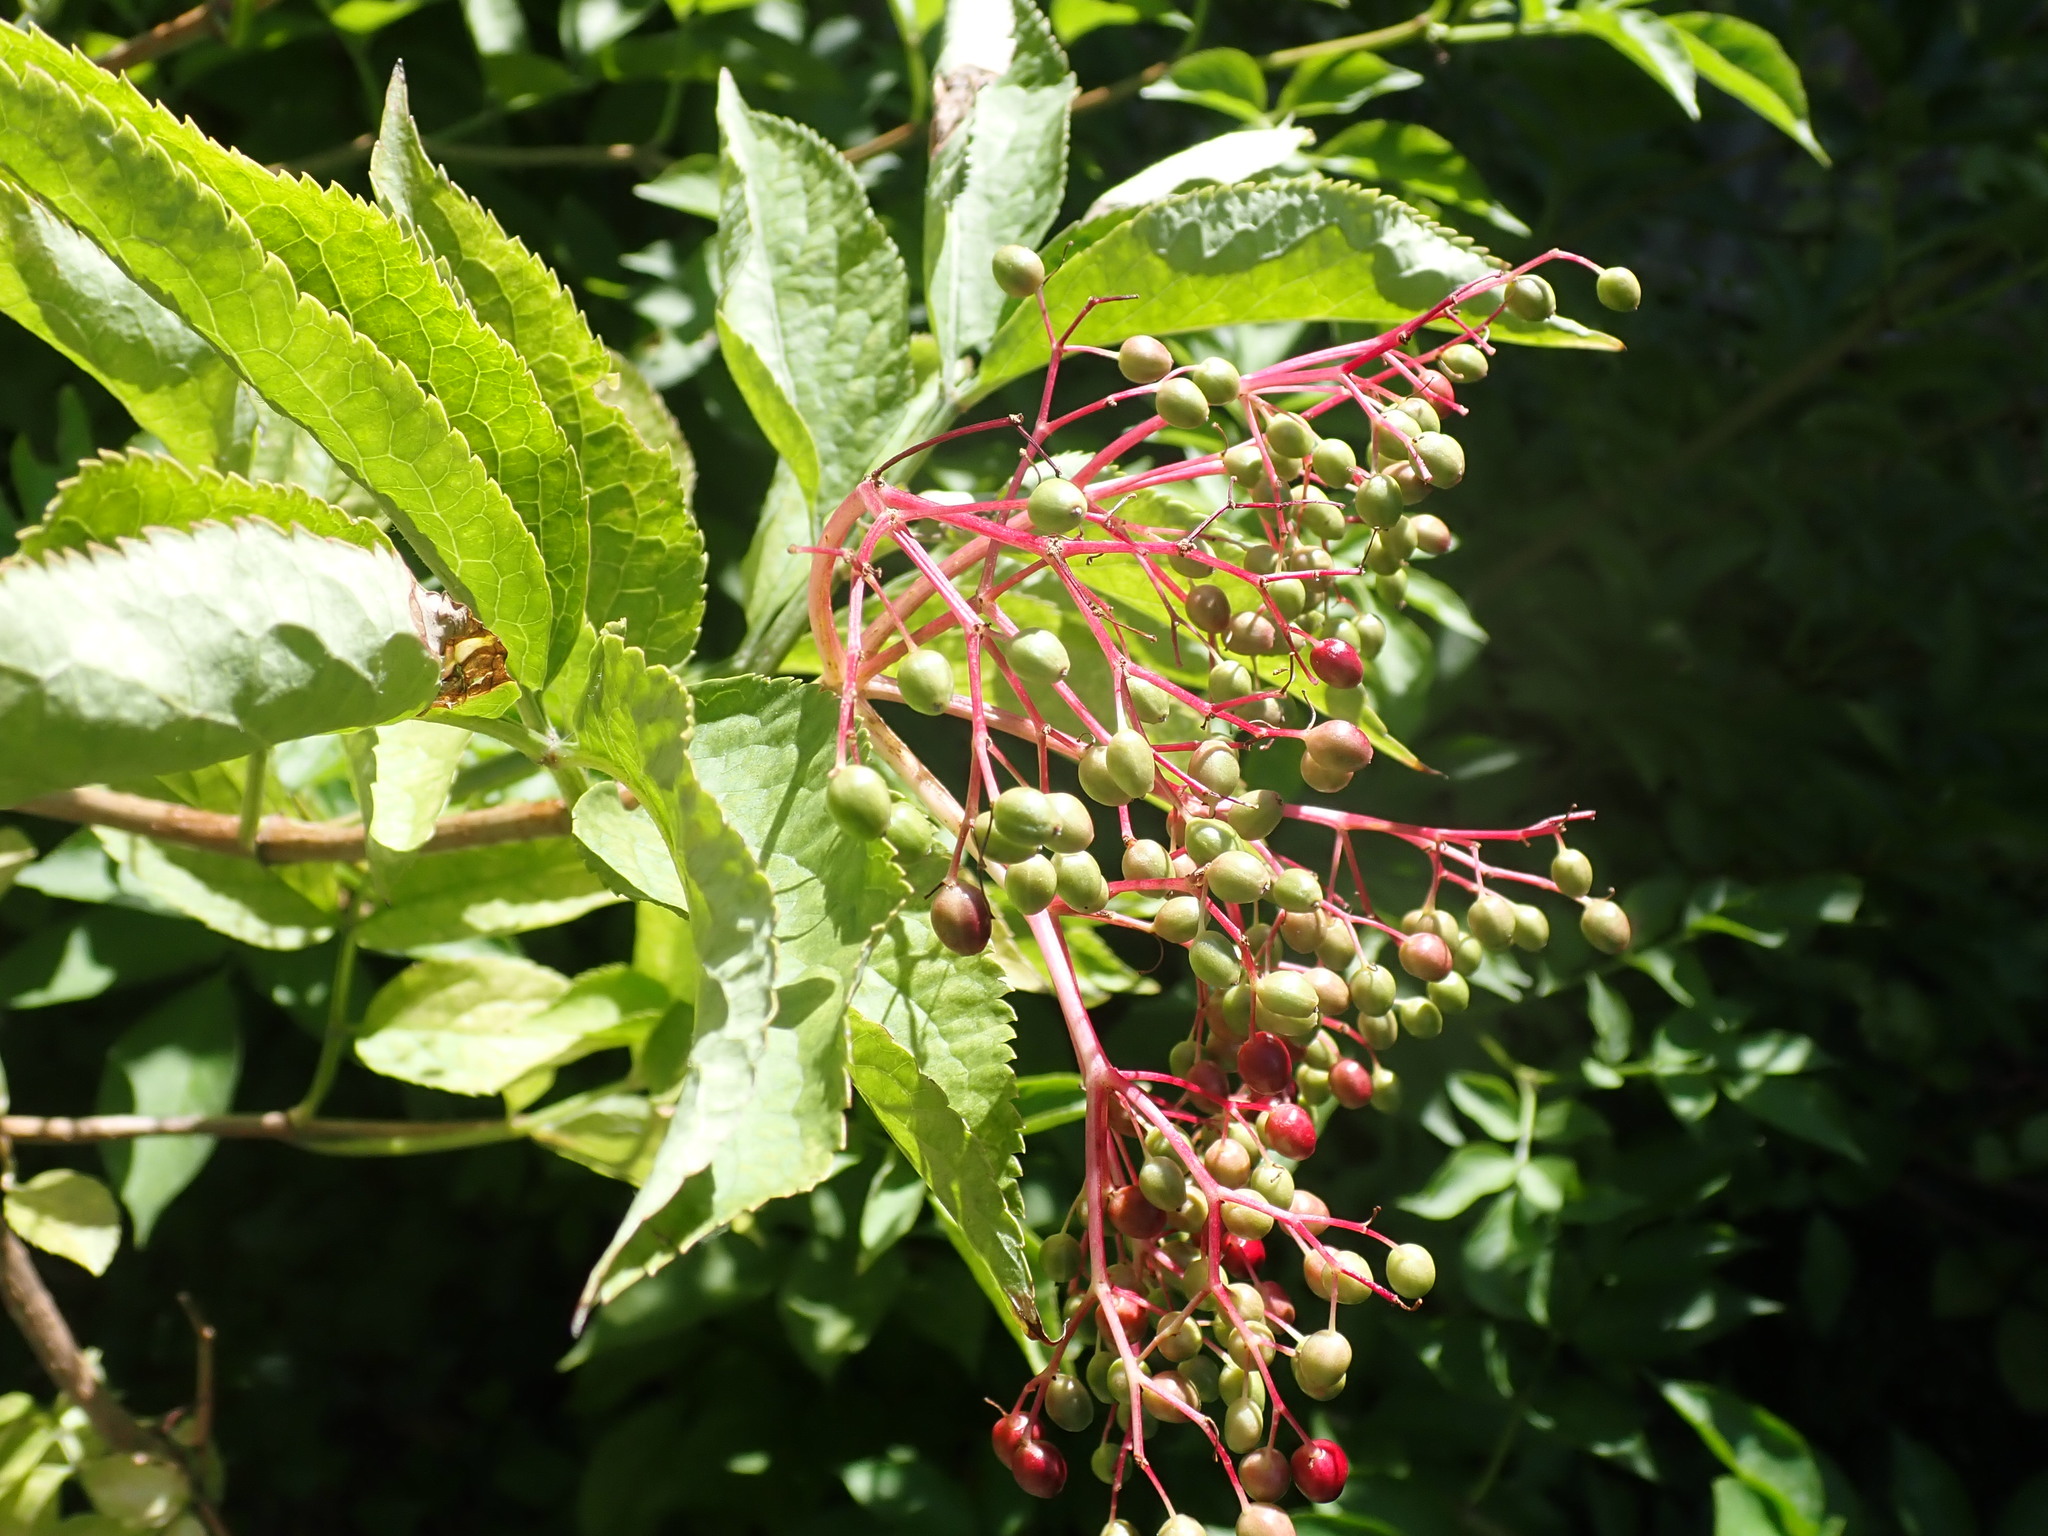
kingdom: Plantae
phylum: Tracheophyta
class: Magnoliopsida
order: Dipsacales
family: Viburnaceae
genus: Sambucus
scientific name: Sambucus nigra
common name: Elder
